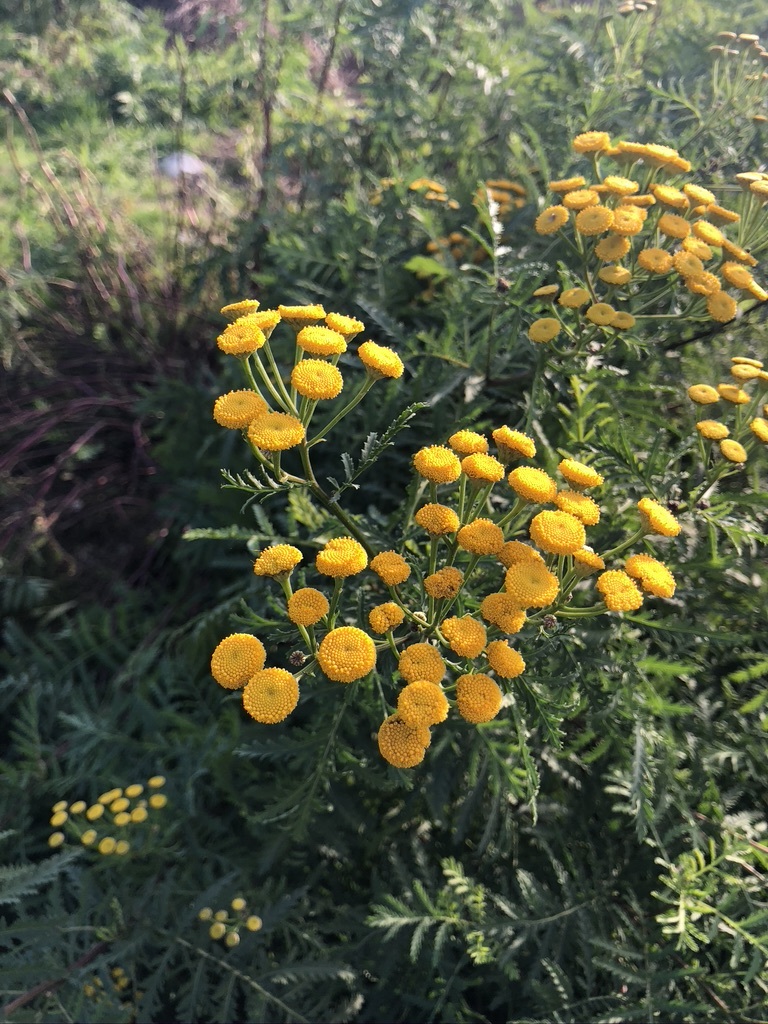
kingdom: Plantae
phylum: Tracheophyta
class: Magnoliopsida
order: Asterales
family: Asteraceae
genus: Tanacetum
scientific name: Tanacetum vulgare
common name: Common tansy
